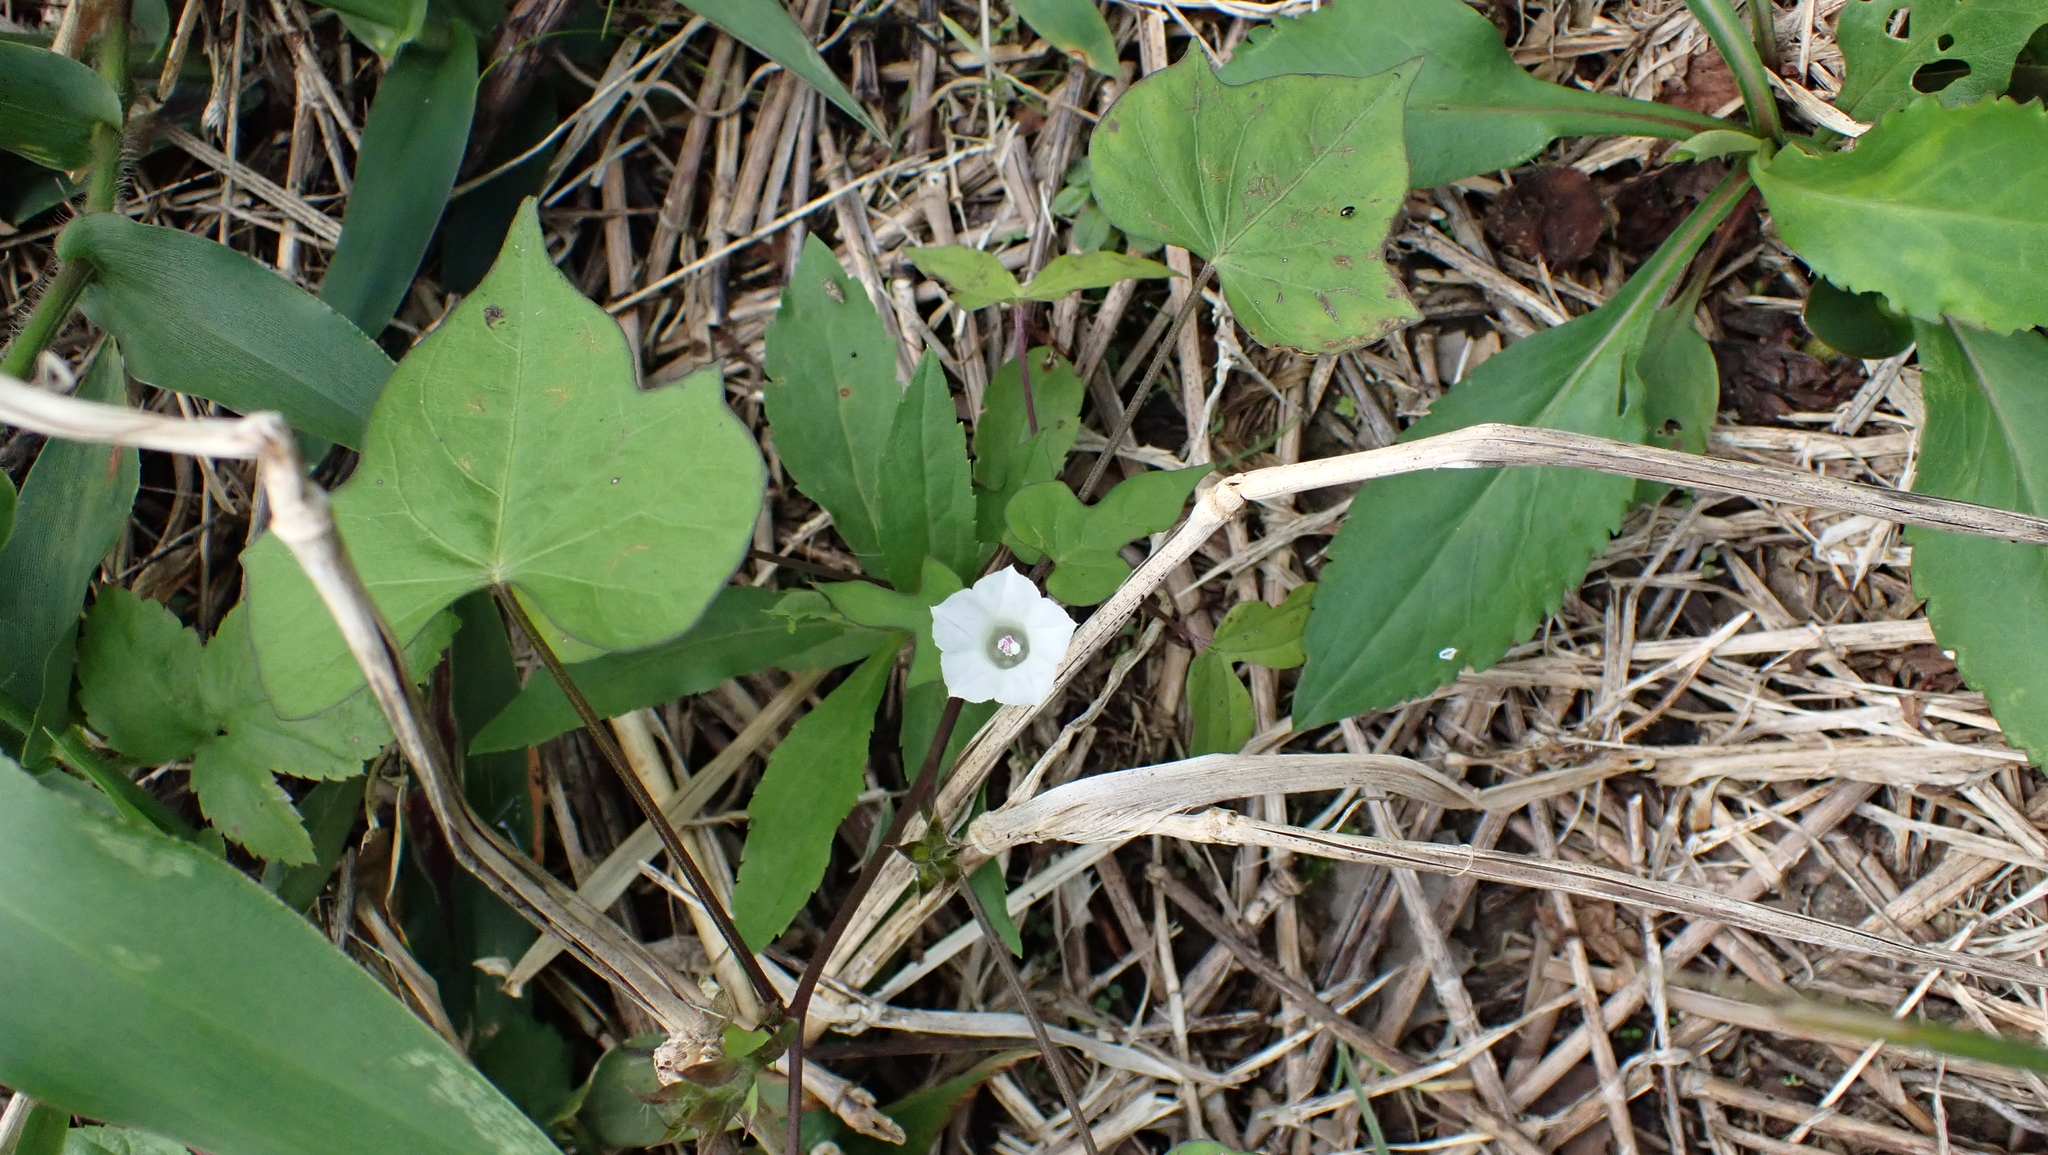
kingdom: Plantae
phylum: Tracheophyta
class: Magnoliopsida
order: Solanales
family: Convolvulaceae
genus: Ipomoea
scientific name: Ipomoea lacunosa
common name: White morning-glory
